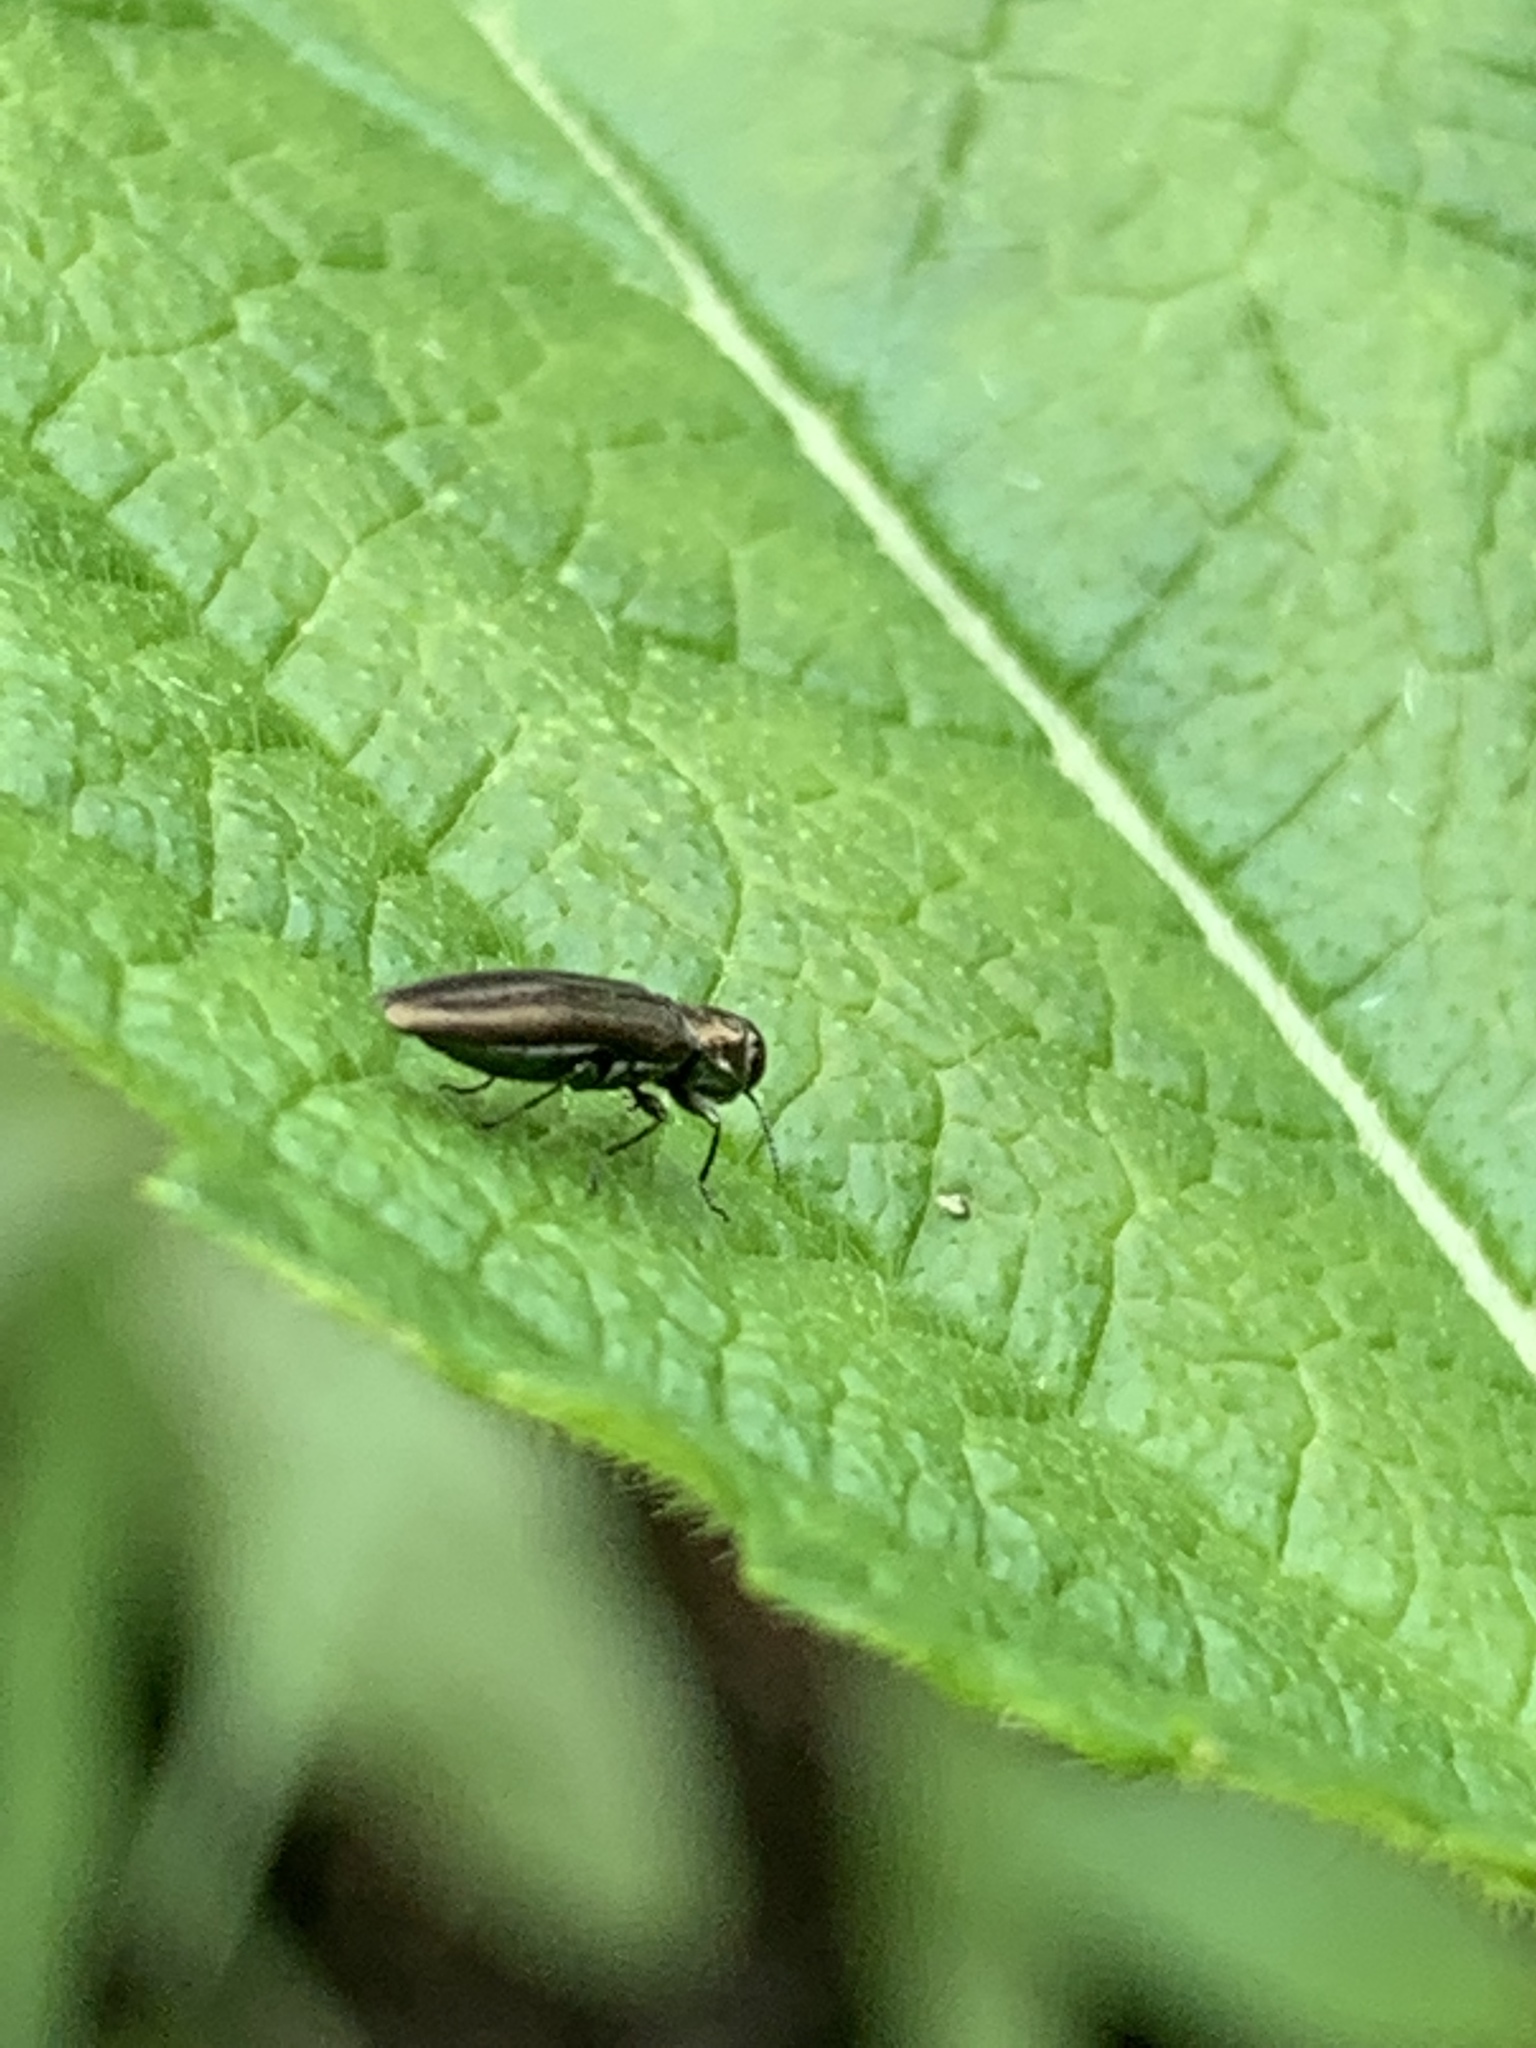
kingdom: Animalia
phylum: Arthropoda
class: Insecta
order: Coleoptera
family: Buprestidae
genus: Agrilus
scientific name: Agrilus cuprescens
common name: Rose stem girdler
